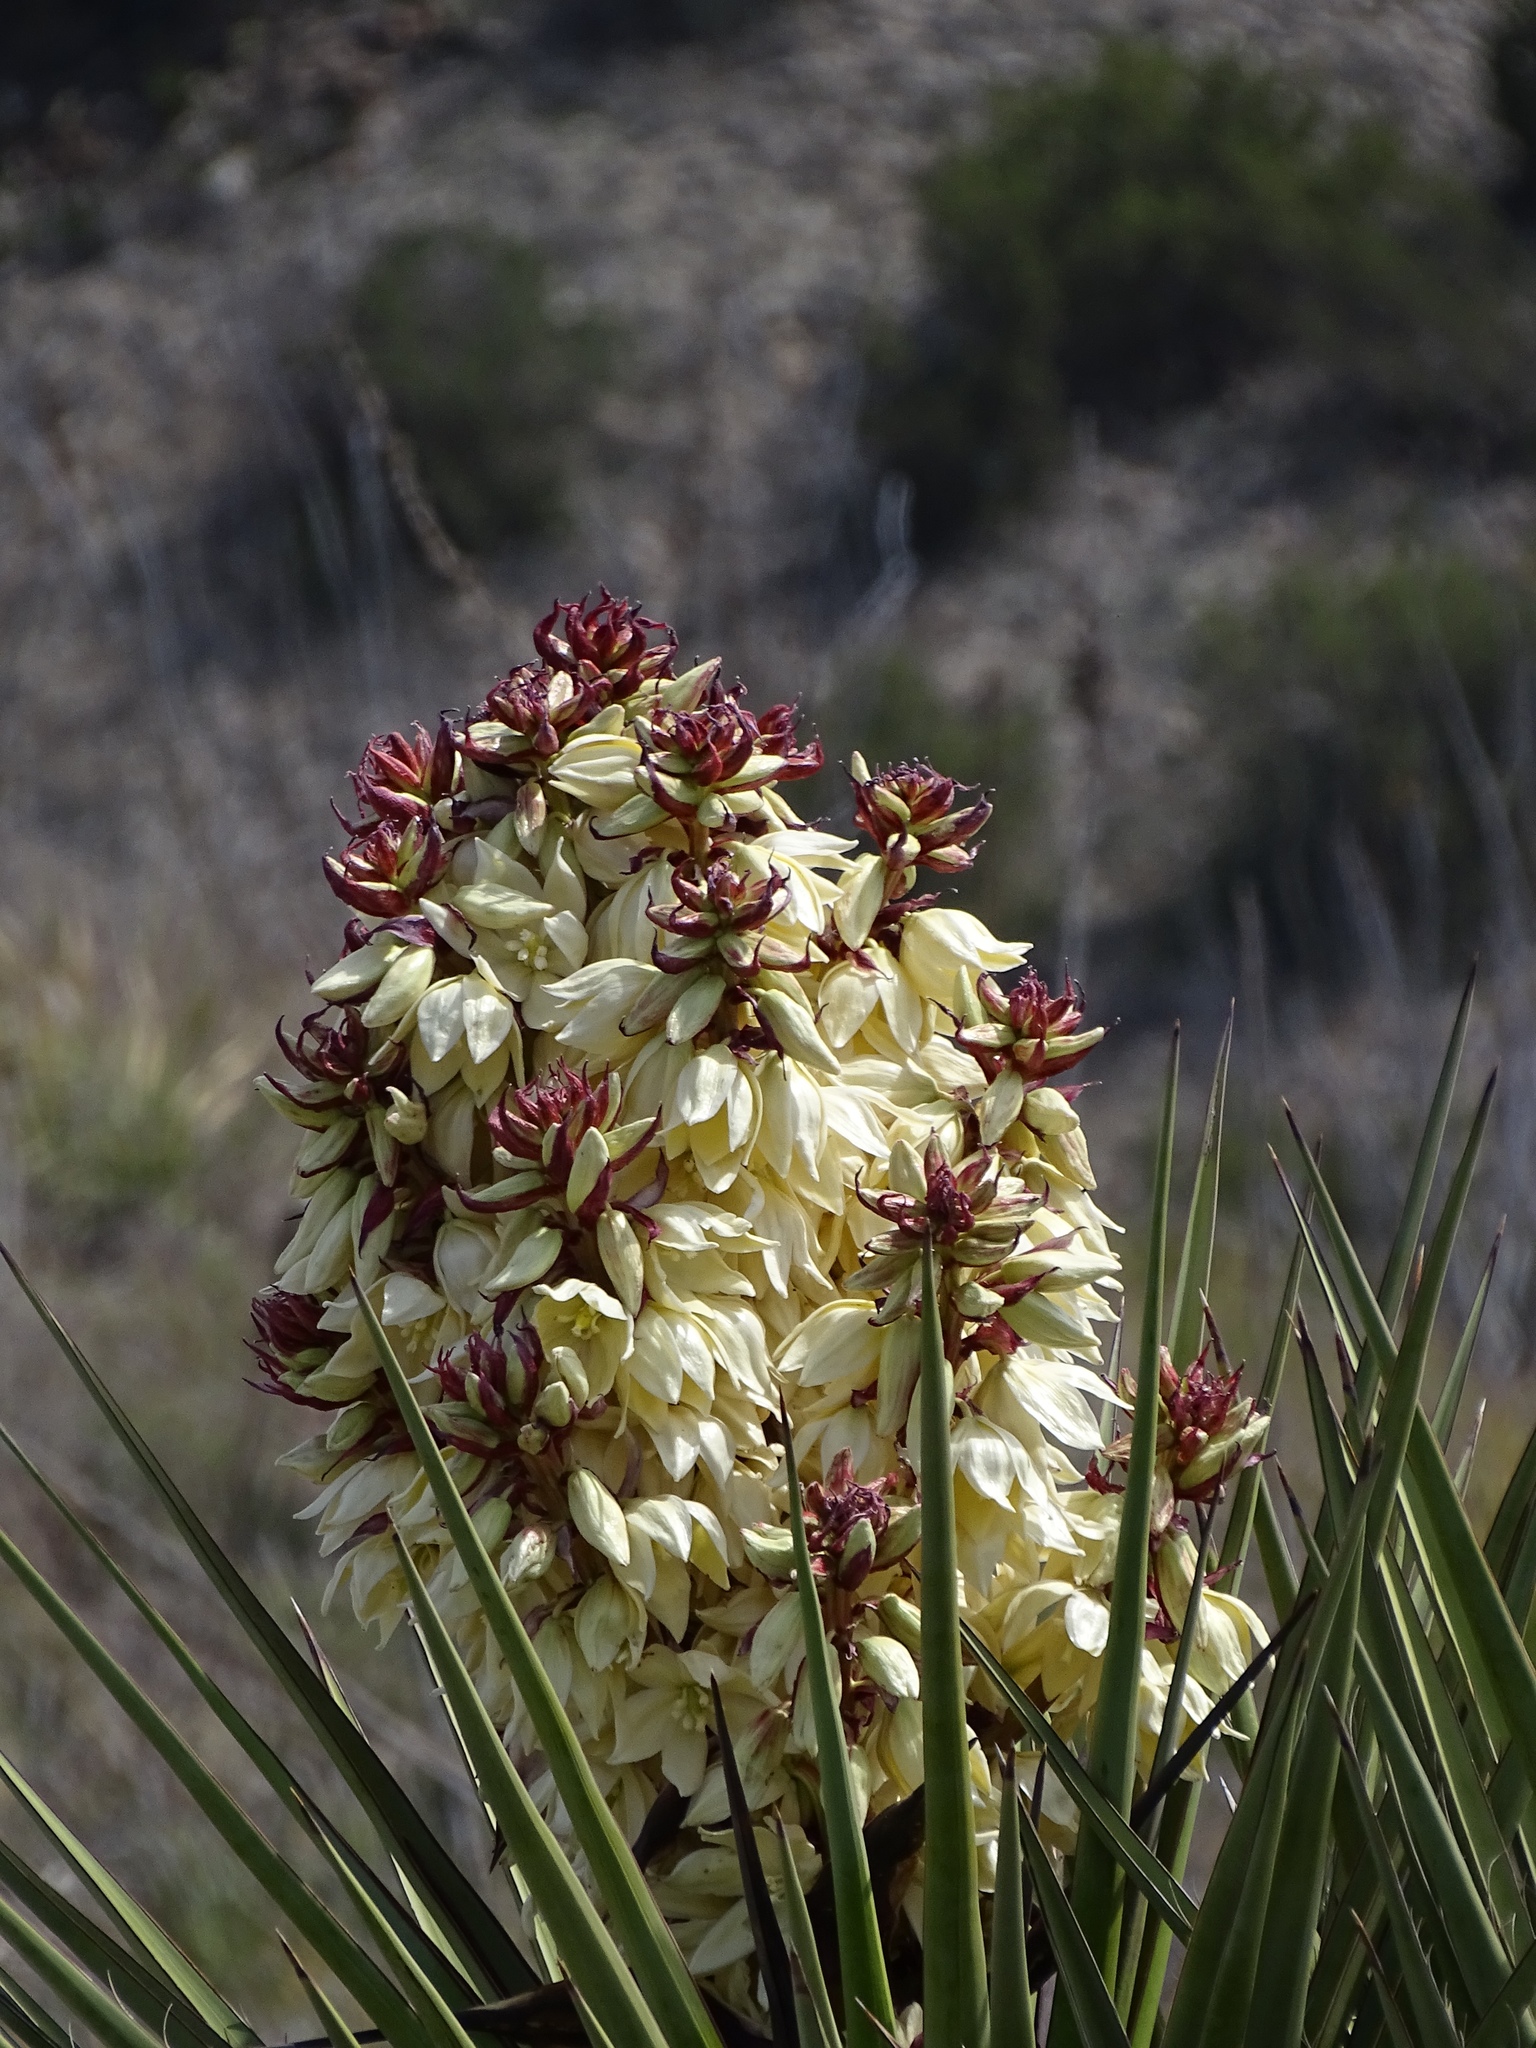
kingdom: Plantae
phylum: Tracheophyta
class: Liliopsida
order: Asparagales
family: Asparagaceae
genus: Yucca
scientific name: Yucca treculiana
